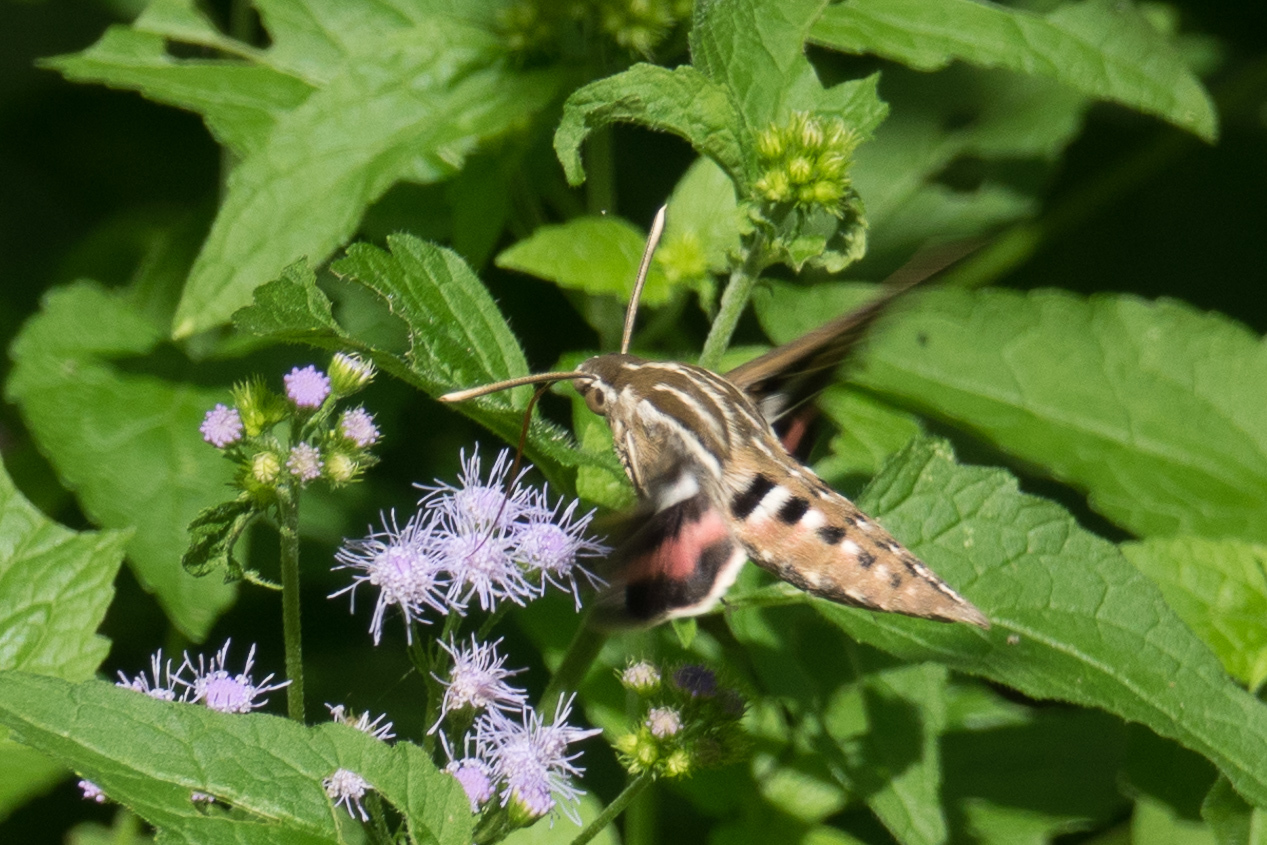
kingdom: Animalia
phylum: Arthropoda
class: Insecta
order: Lepidoptera
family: Sphingidae
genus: Hyles
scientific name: Hyles lineata
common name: White-lined sphinx
